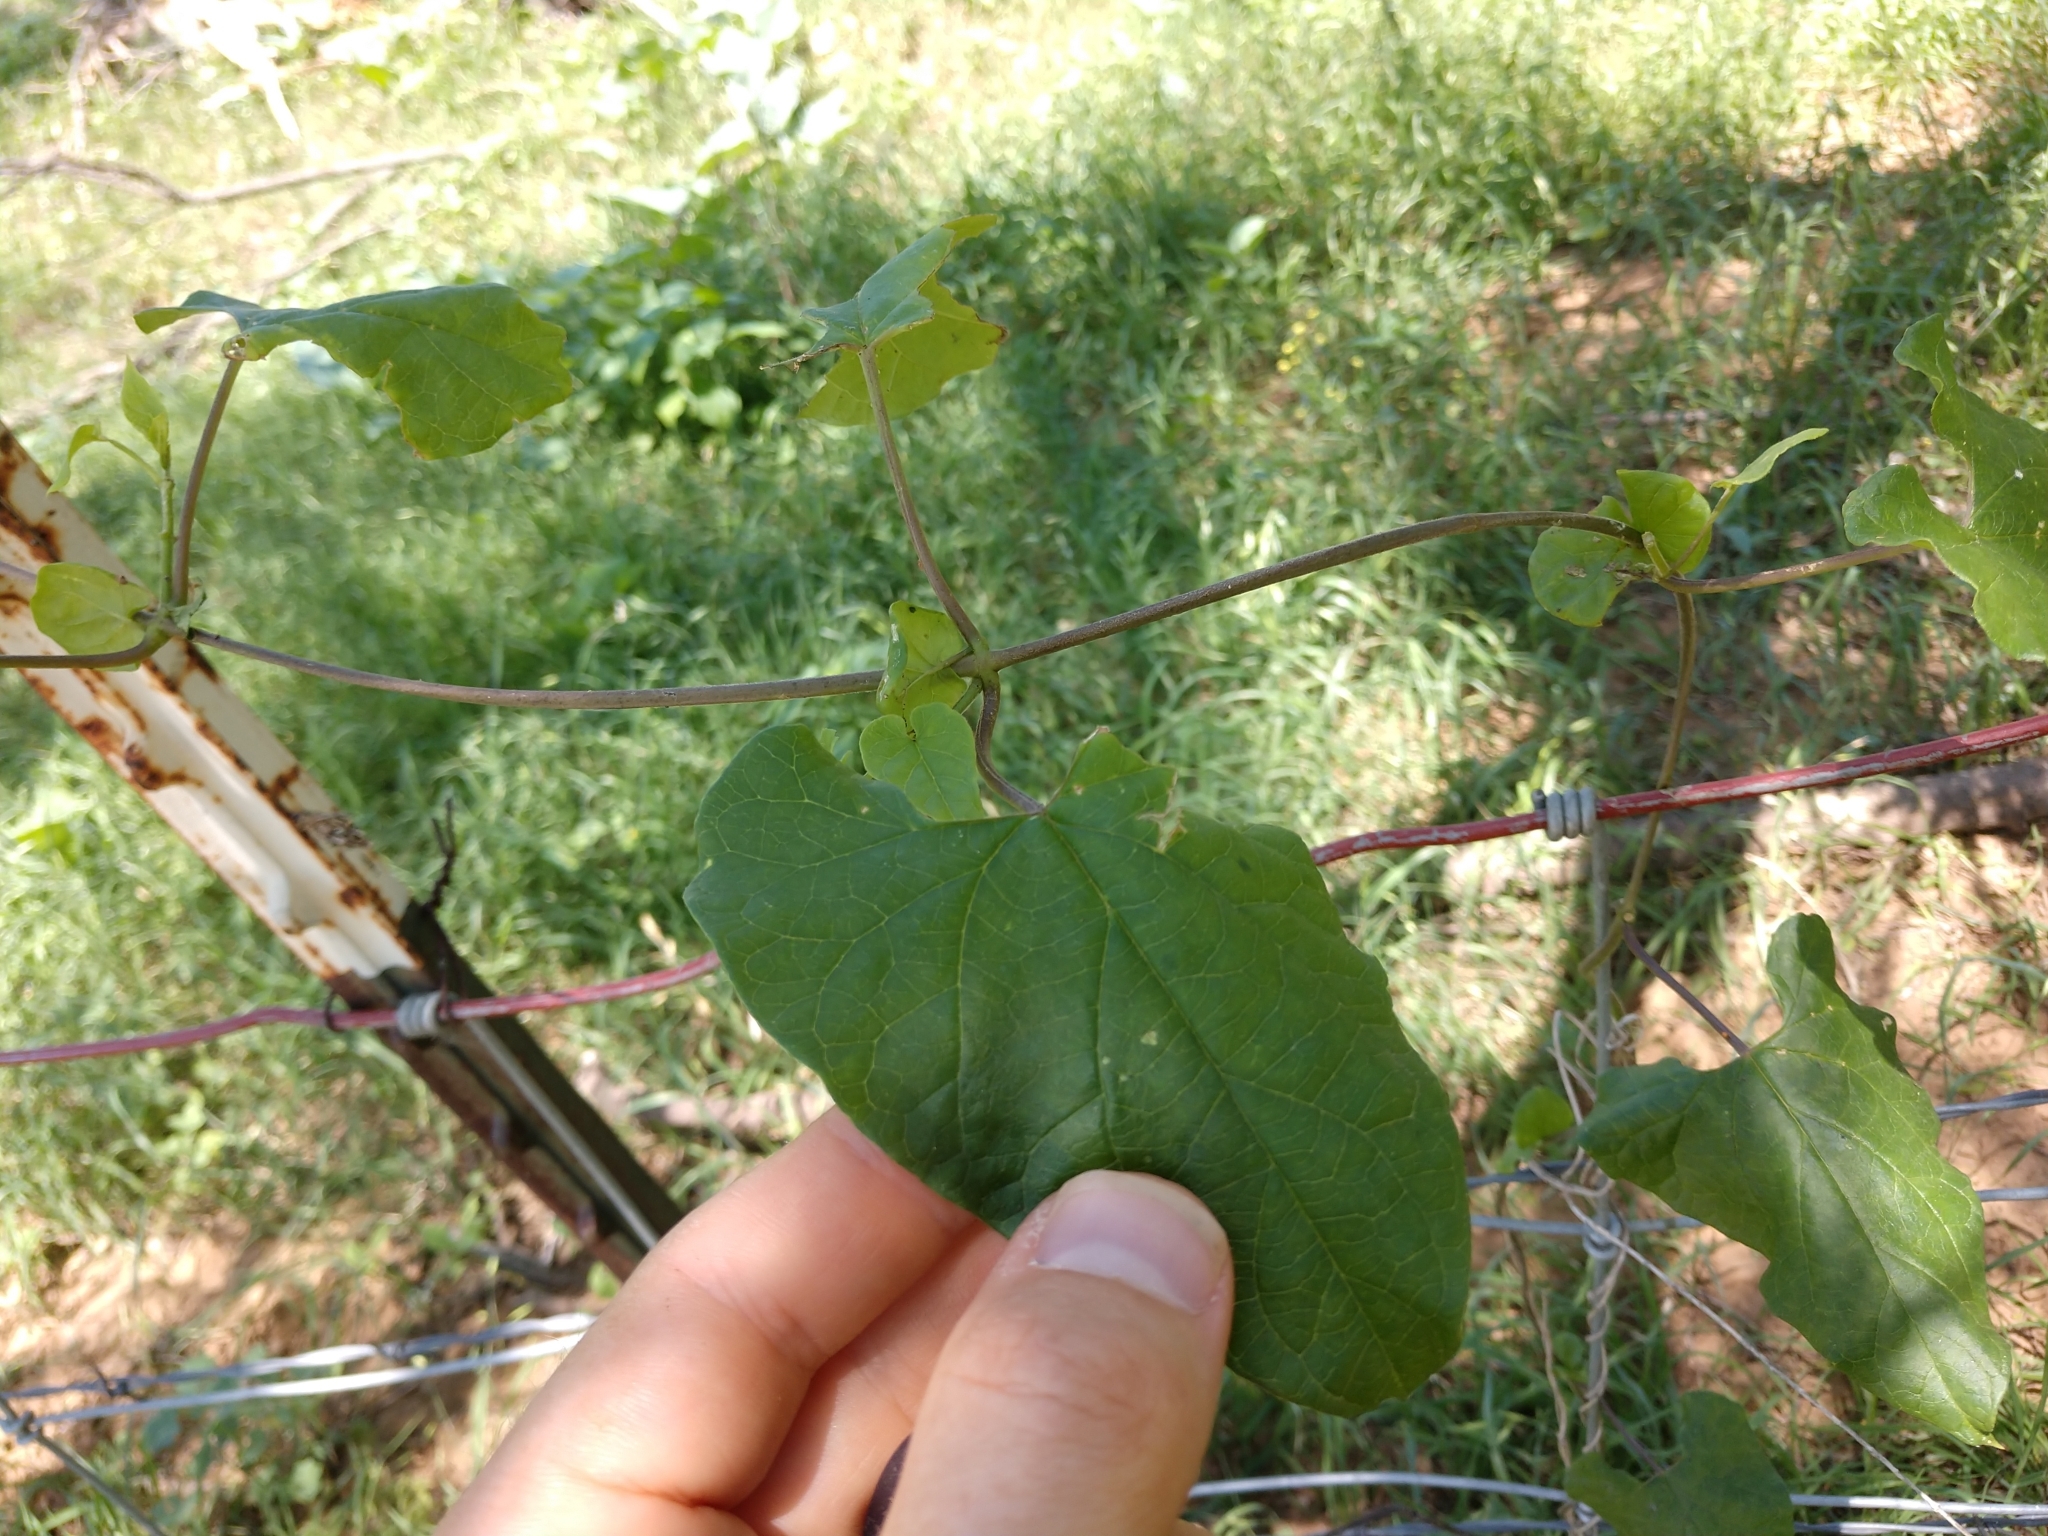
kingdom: Plantae
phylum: Tracheophyta
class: Magnoliopsida
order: Gentianales
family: Apocynaceae
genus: Cynanchum
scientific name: Cynanchum racemosum
